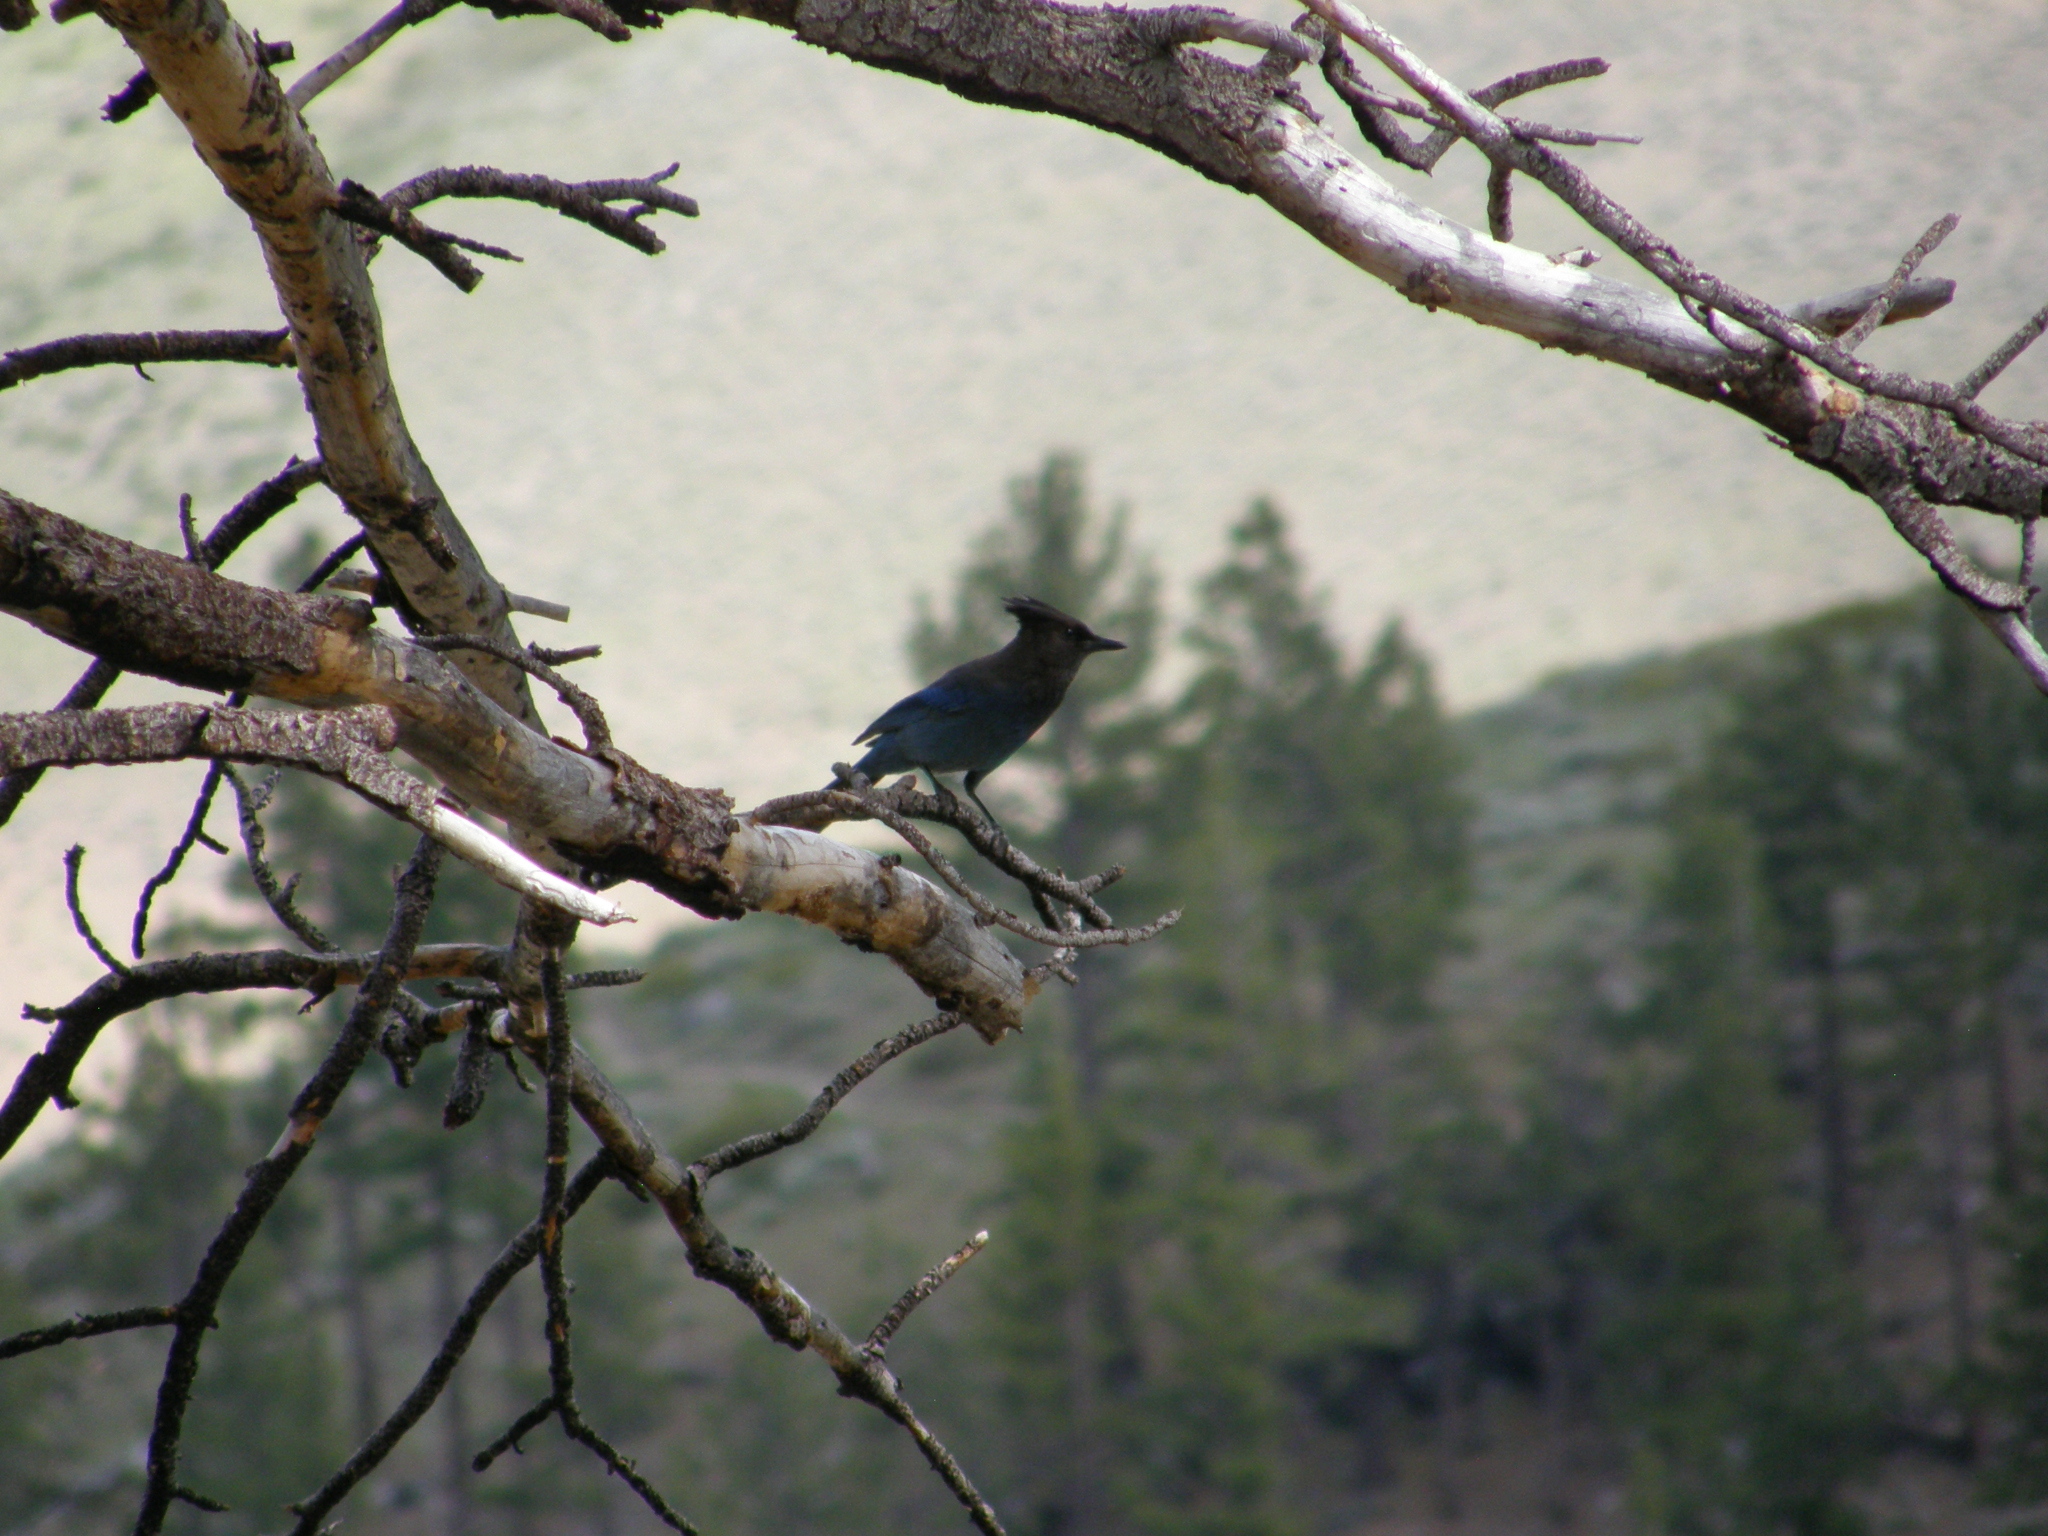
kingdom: Animalia
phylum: Chordata
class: Aves
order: Passeriformes
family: Corvidae
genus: Cyanocitta
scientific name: Cyanocitta stelleri
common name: Steller's jay
